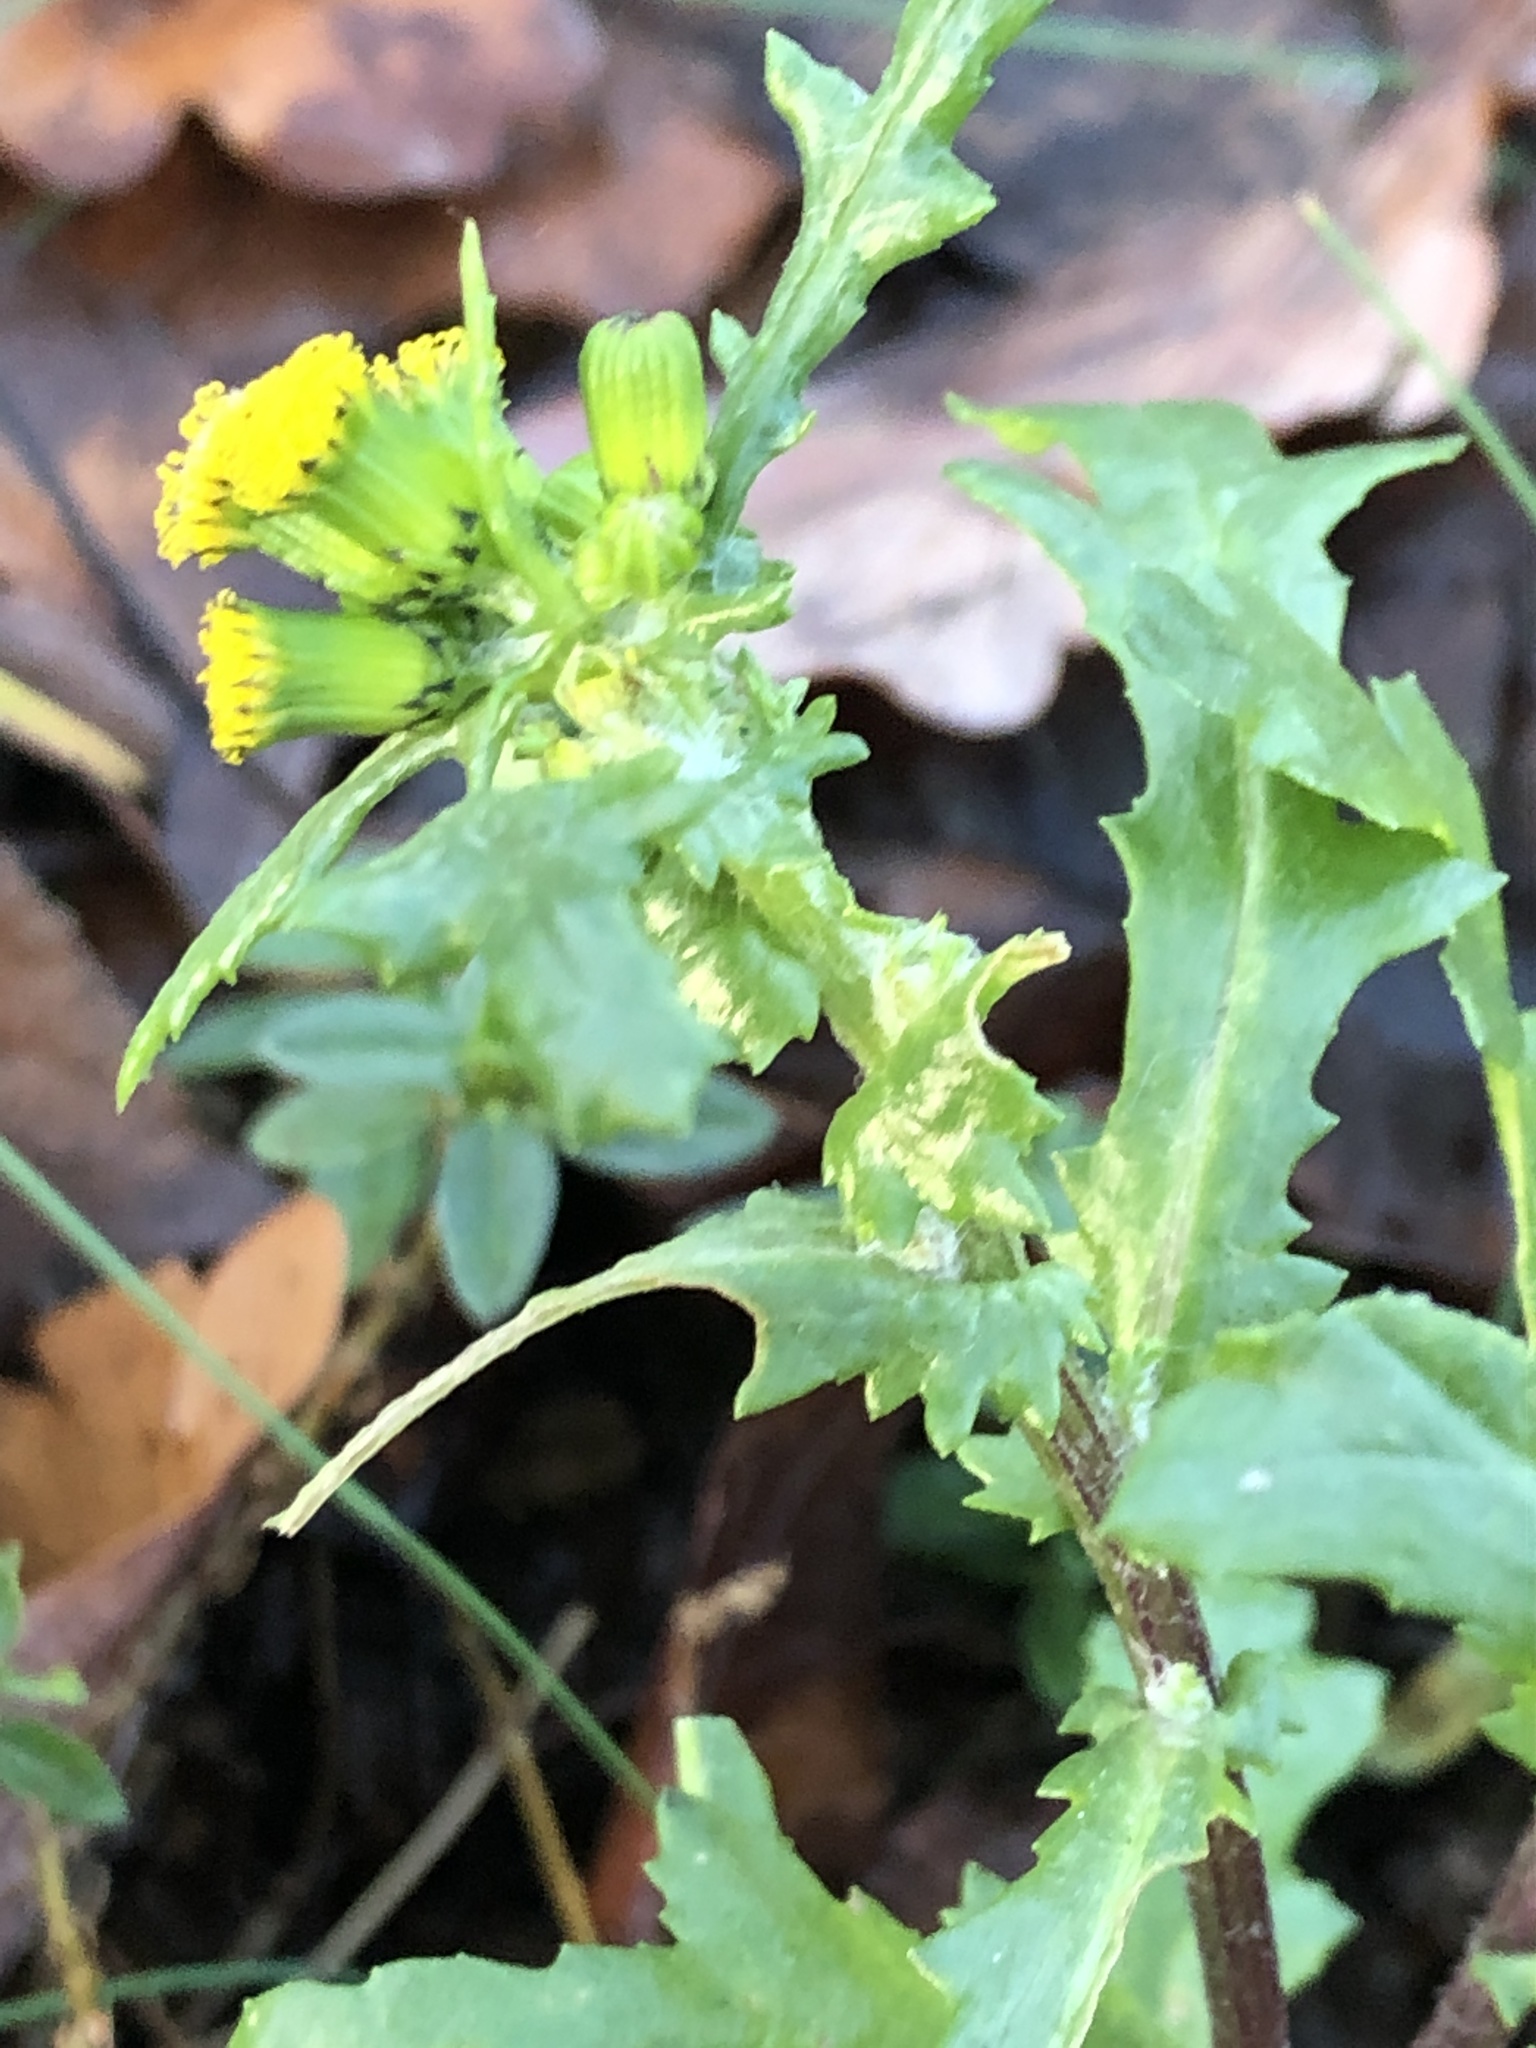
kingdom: Plantae
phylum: Tracheophyta
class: Magnoliopsida
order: Asterales
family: Asteraceae
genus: Senecio
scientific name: Senecio vulgaris
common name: Old-man-in-the-spring
